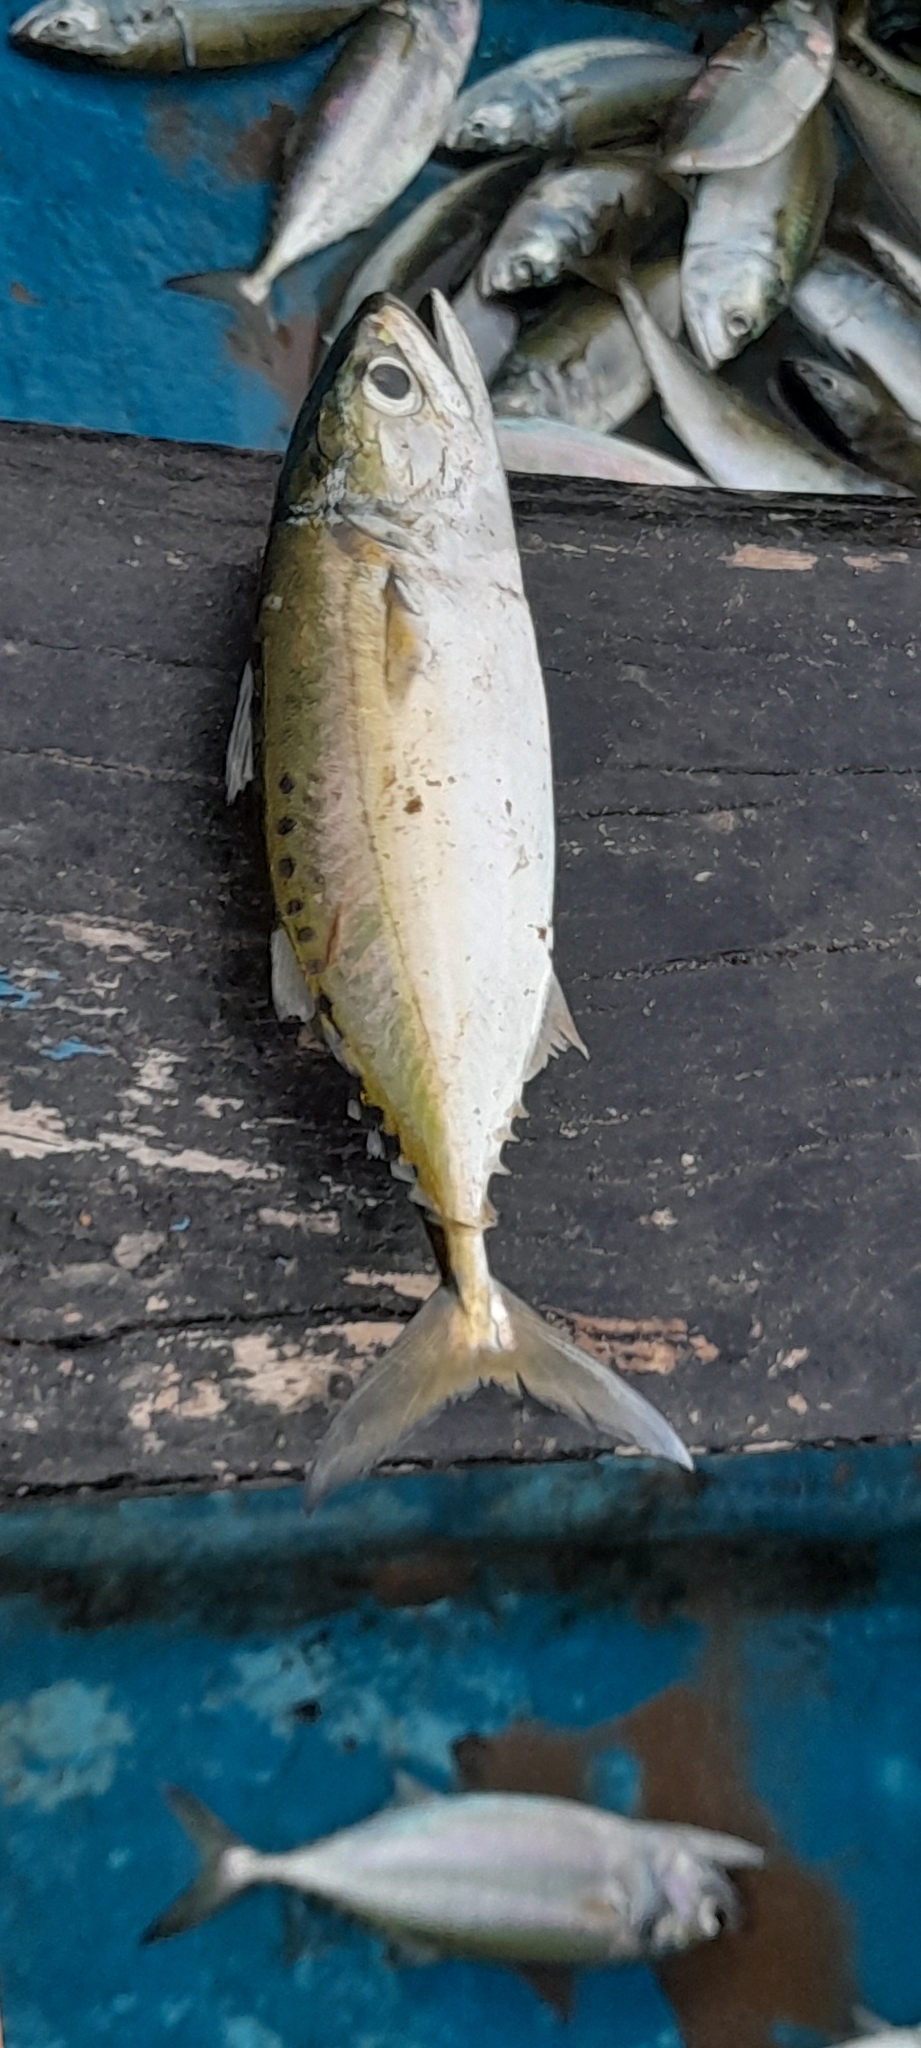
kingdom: Animalia
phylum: Chordata
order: Perciformes
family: Scombridae
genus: Rastrelliger
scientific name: Rastrelliger kanagurta
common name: Indian mackerel
